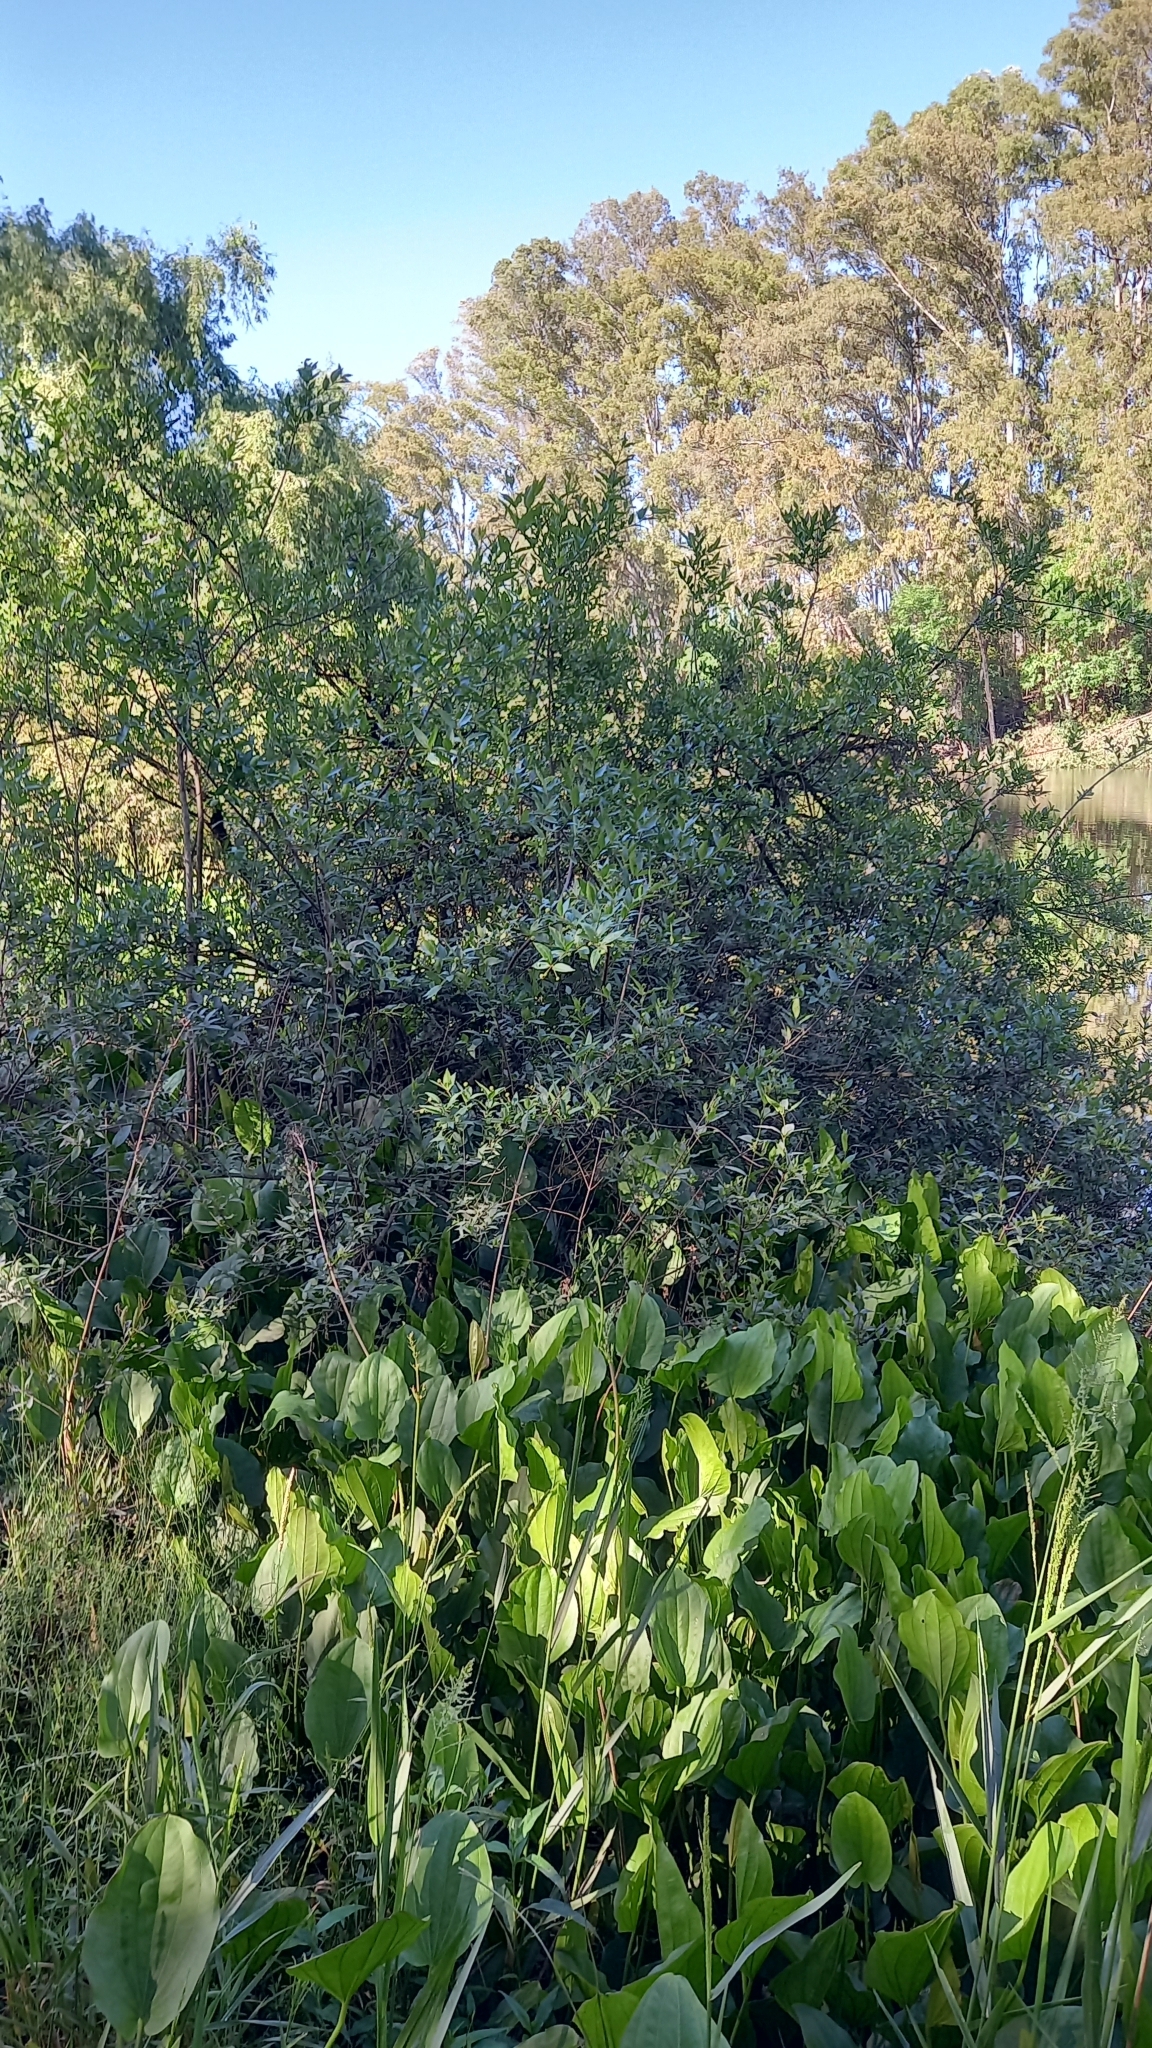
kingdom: Plantae
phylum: Tracheophyta
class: Magnoliopsida
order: Gentianales
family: Rubiaceae
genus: Cephalanthus
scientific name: Cephalanthus glabratus
